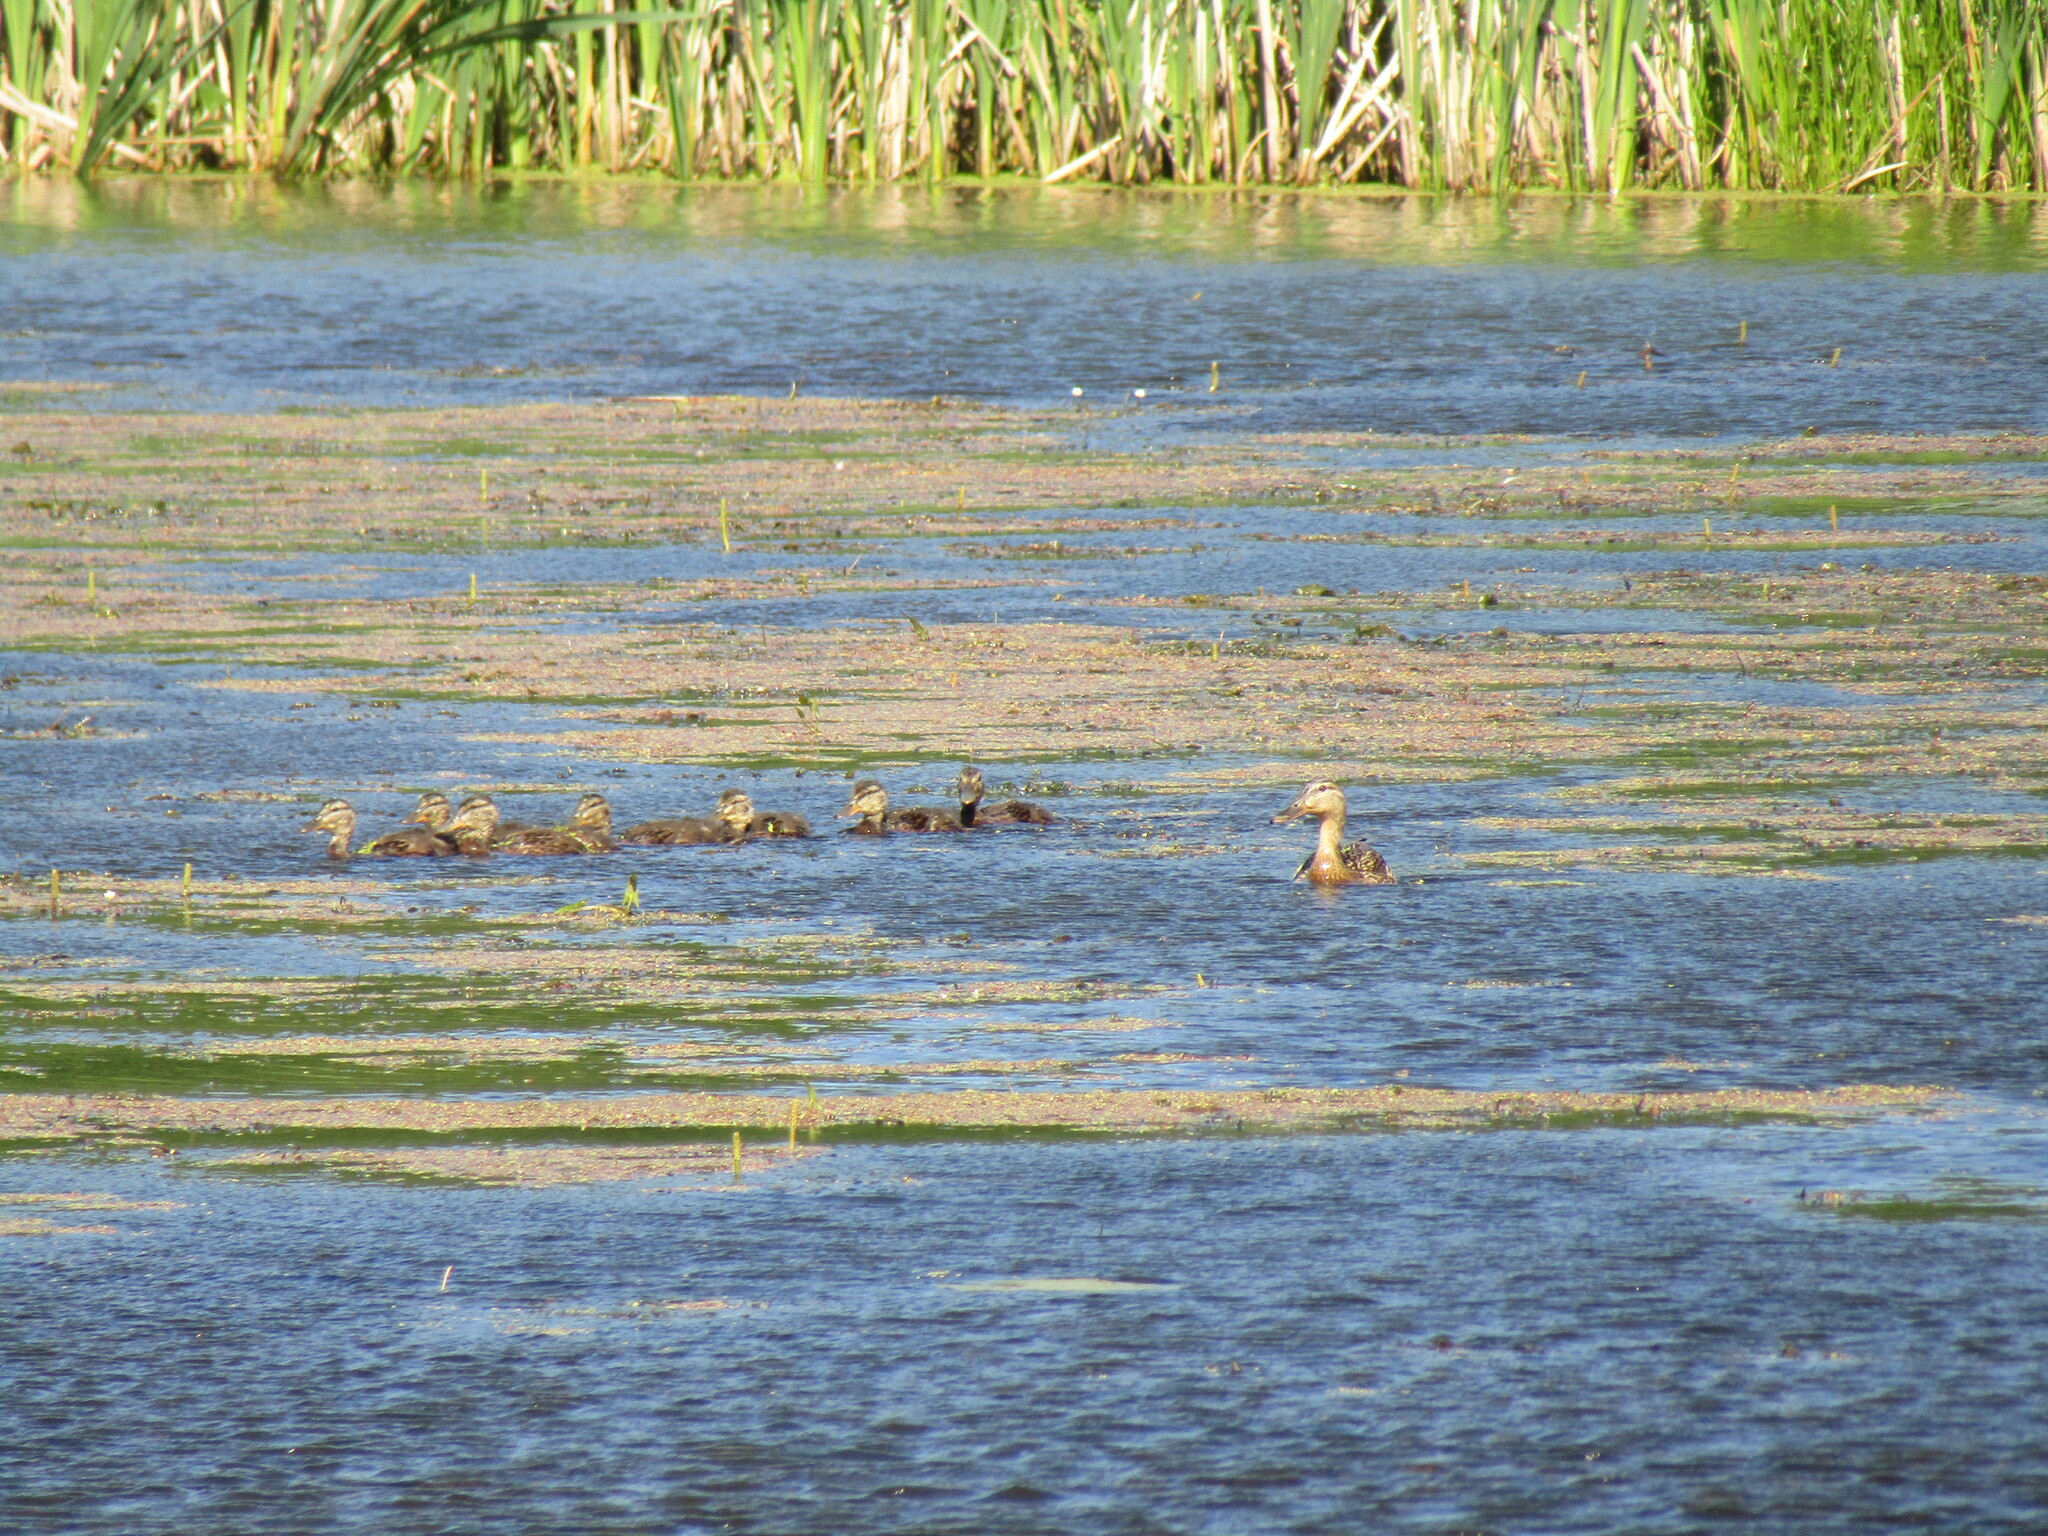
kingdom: Animalia
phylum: Chordata
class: Aves
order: Anseriformes
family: Anatidae
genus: Anas
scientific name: Anas platyrhynchos
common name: Mallard
